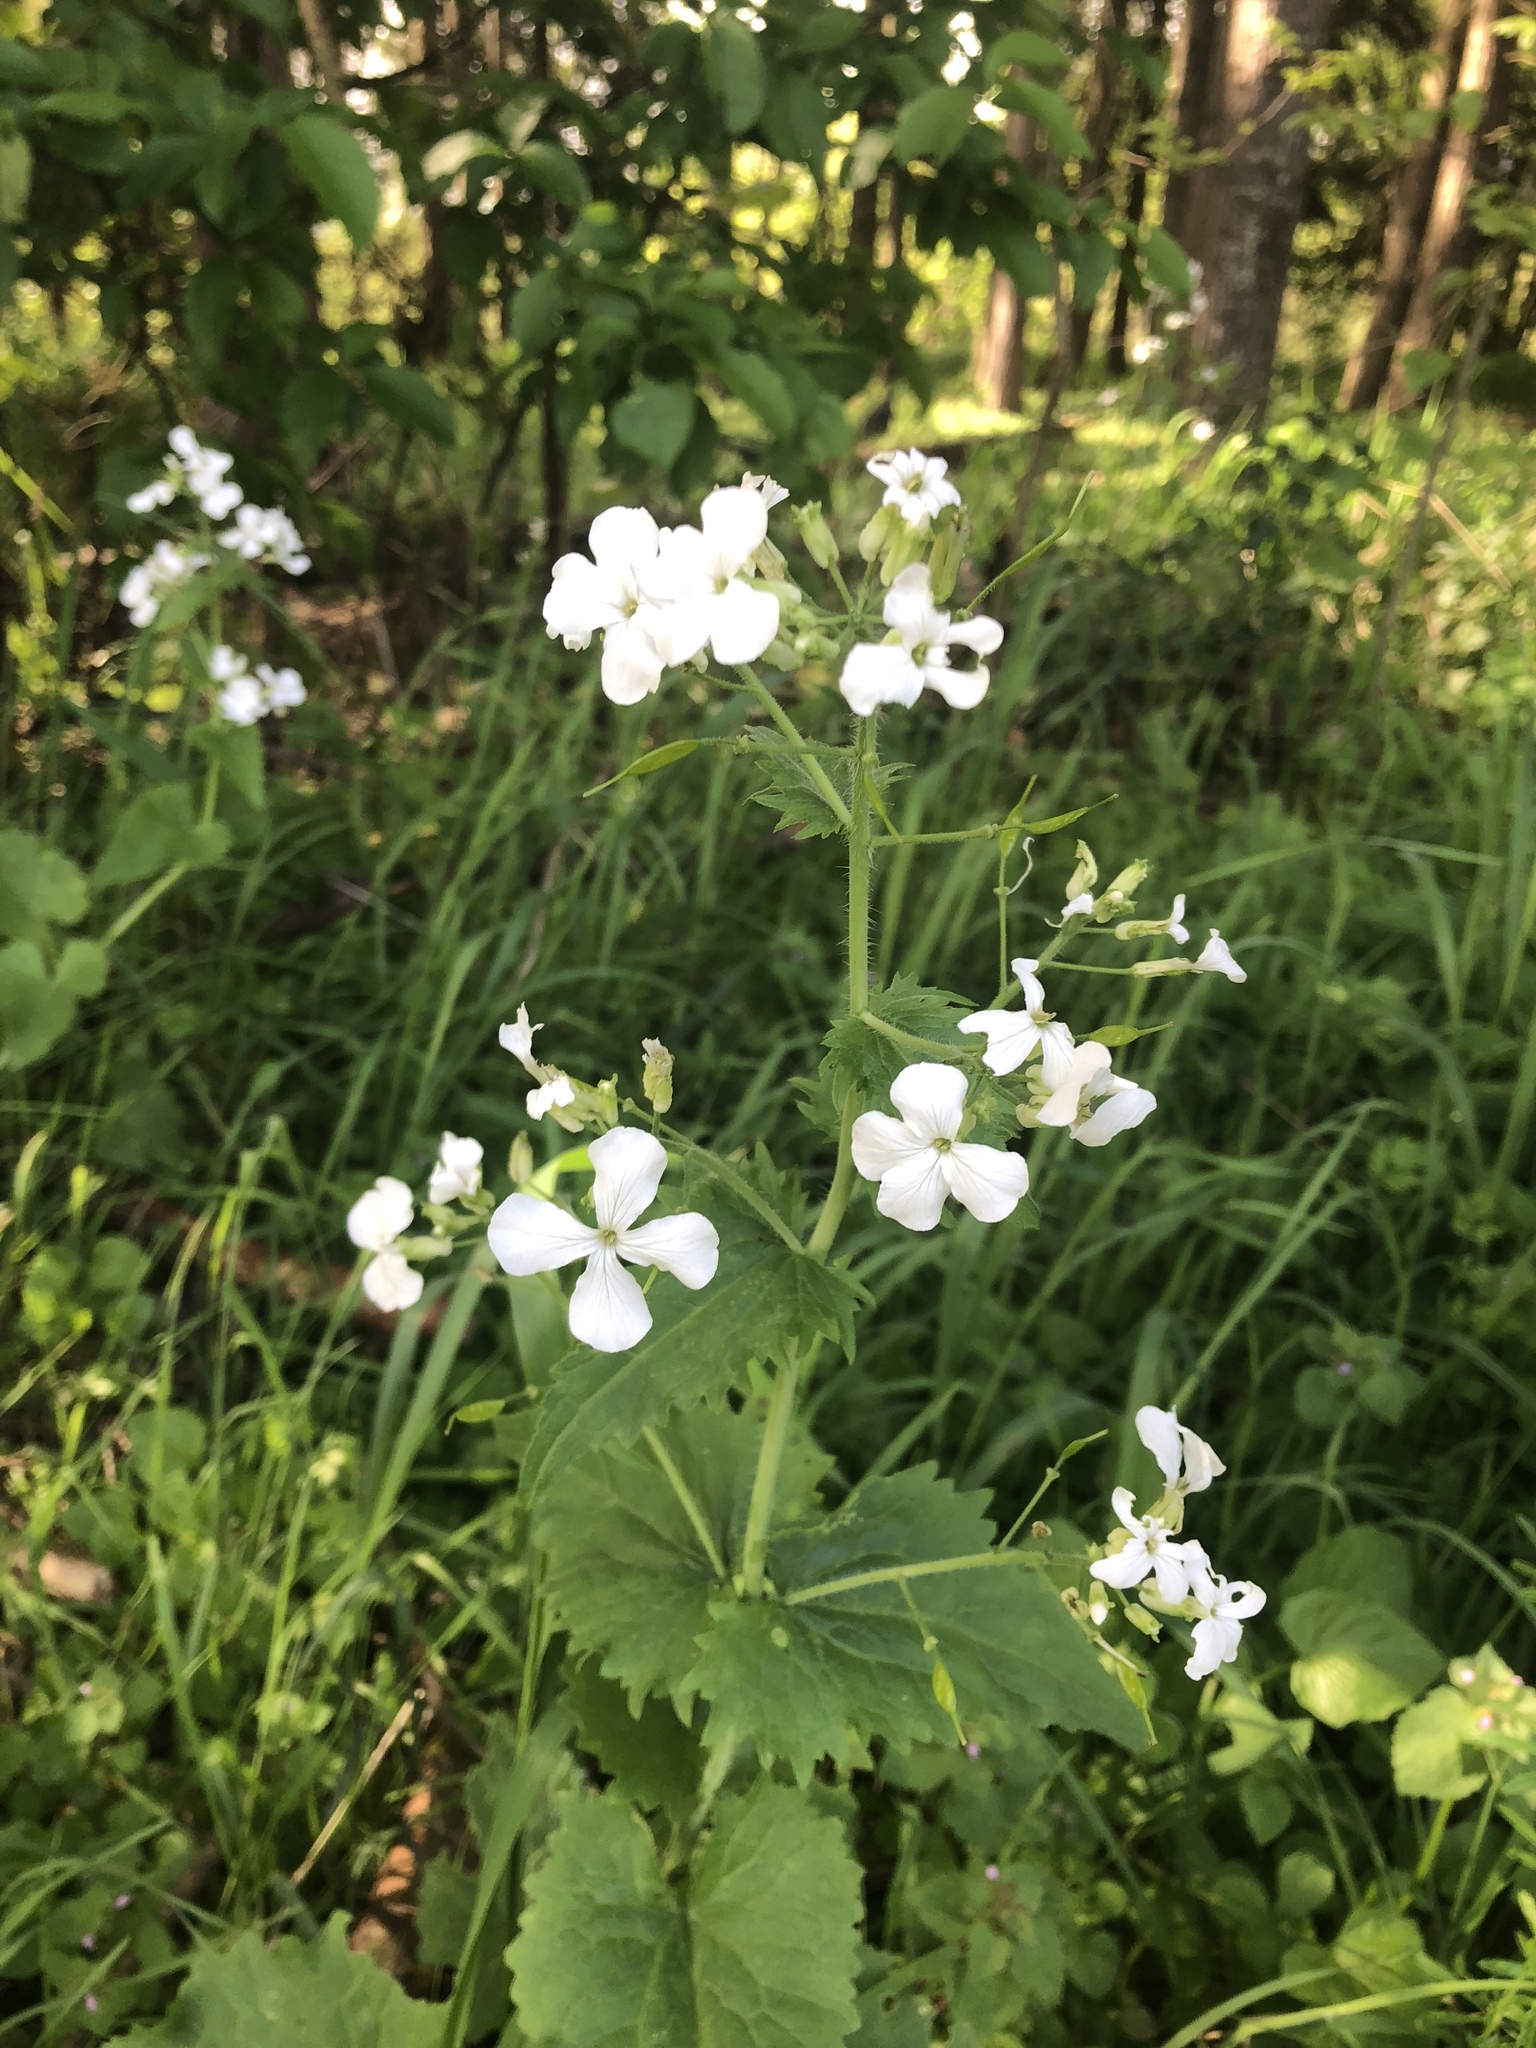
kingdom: Plantae
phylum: Tracheophyta
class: Magnoliopsida
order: Brassicales
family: Brassicaceae
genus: Lunaria
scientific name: Lunaria annua
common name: Honesty
